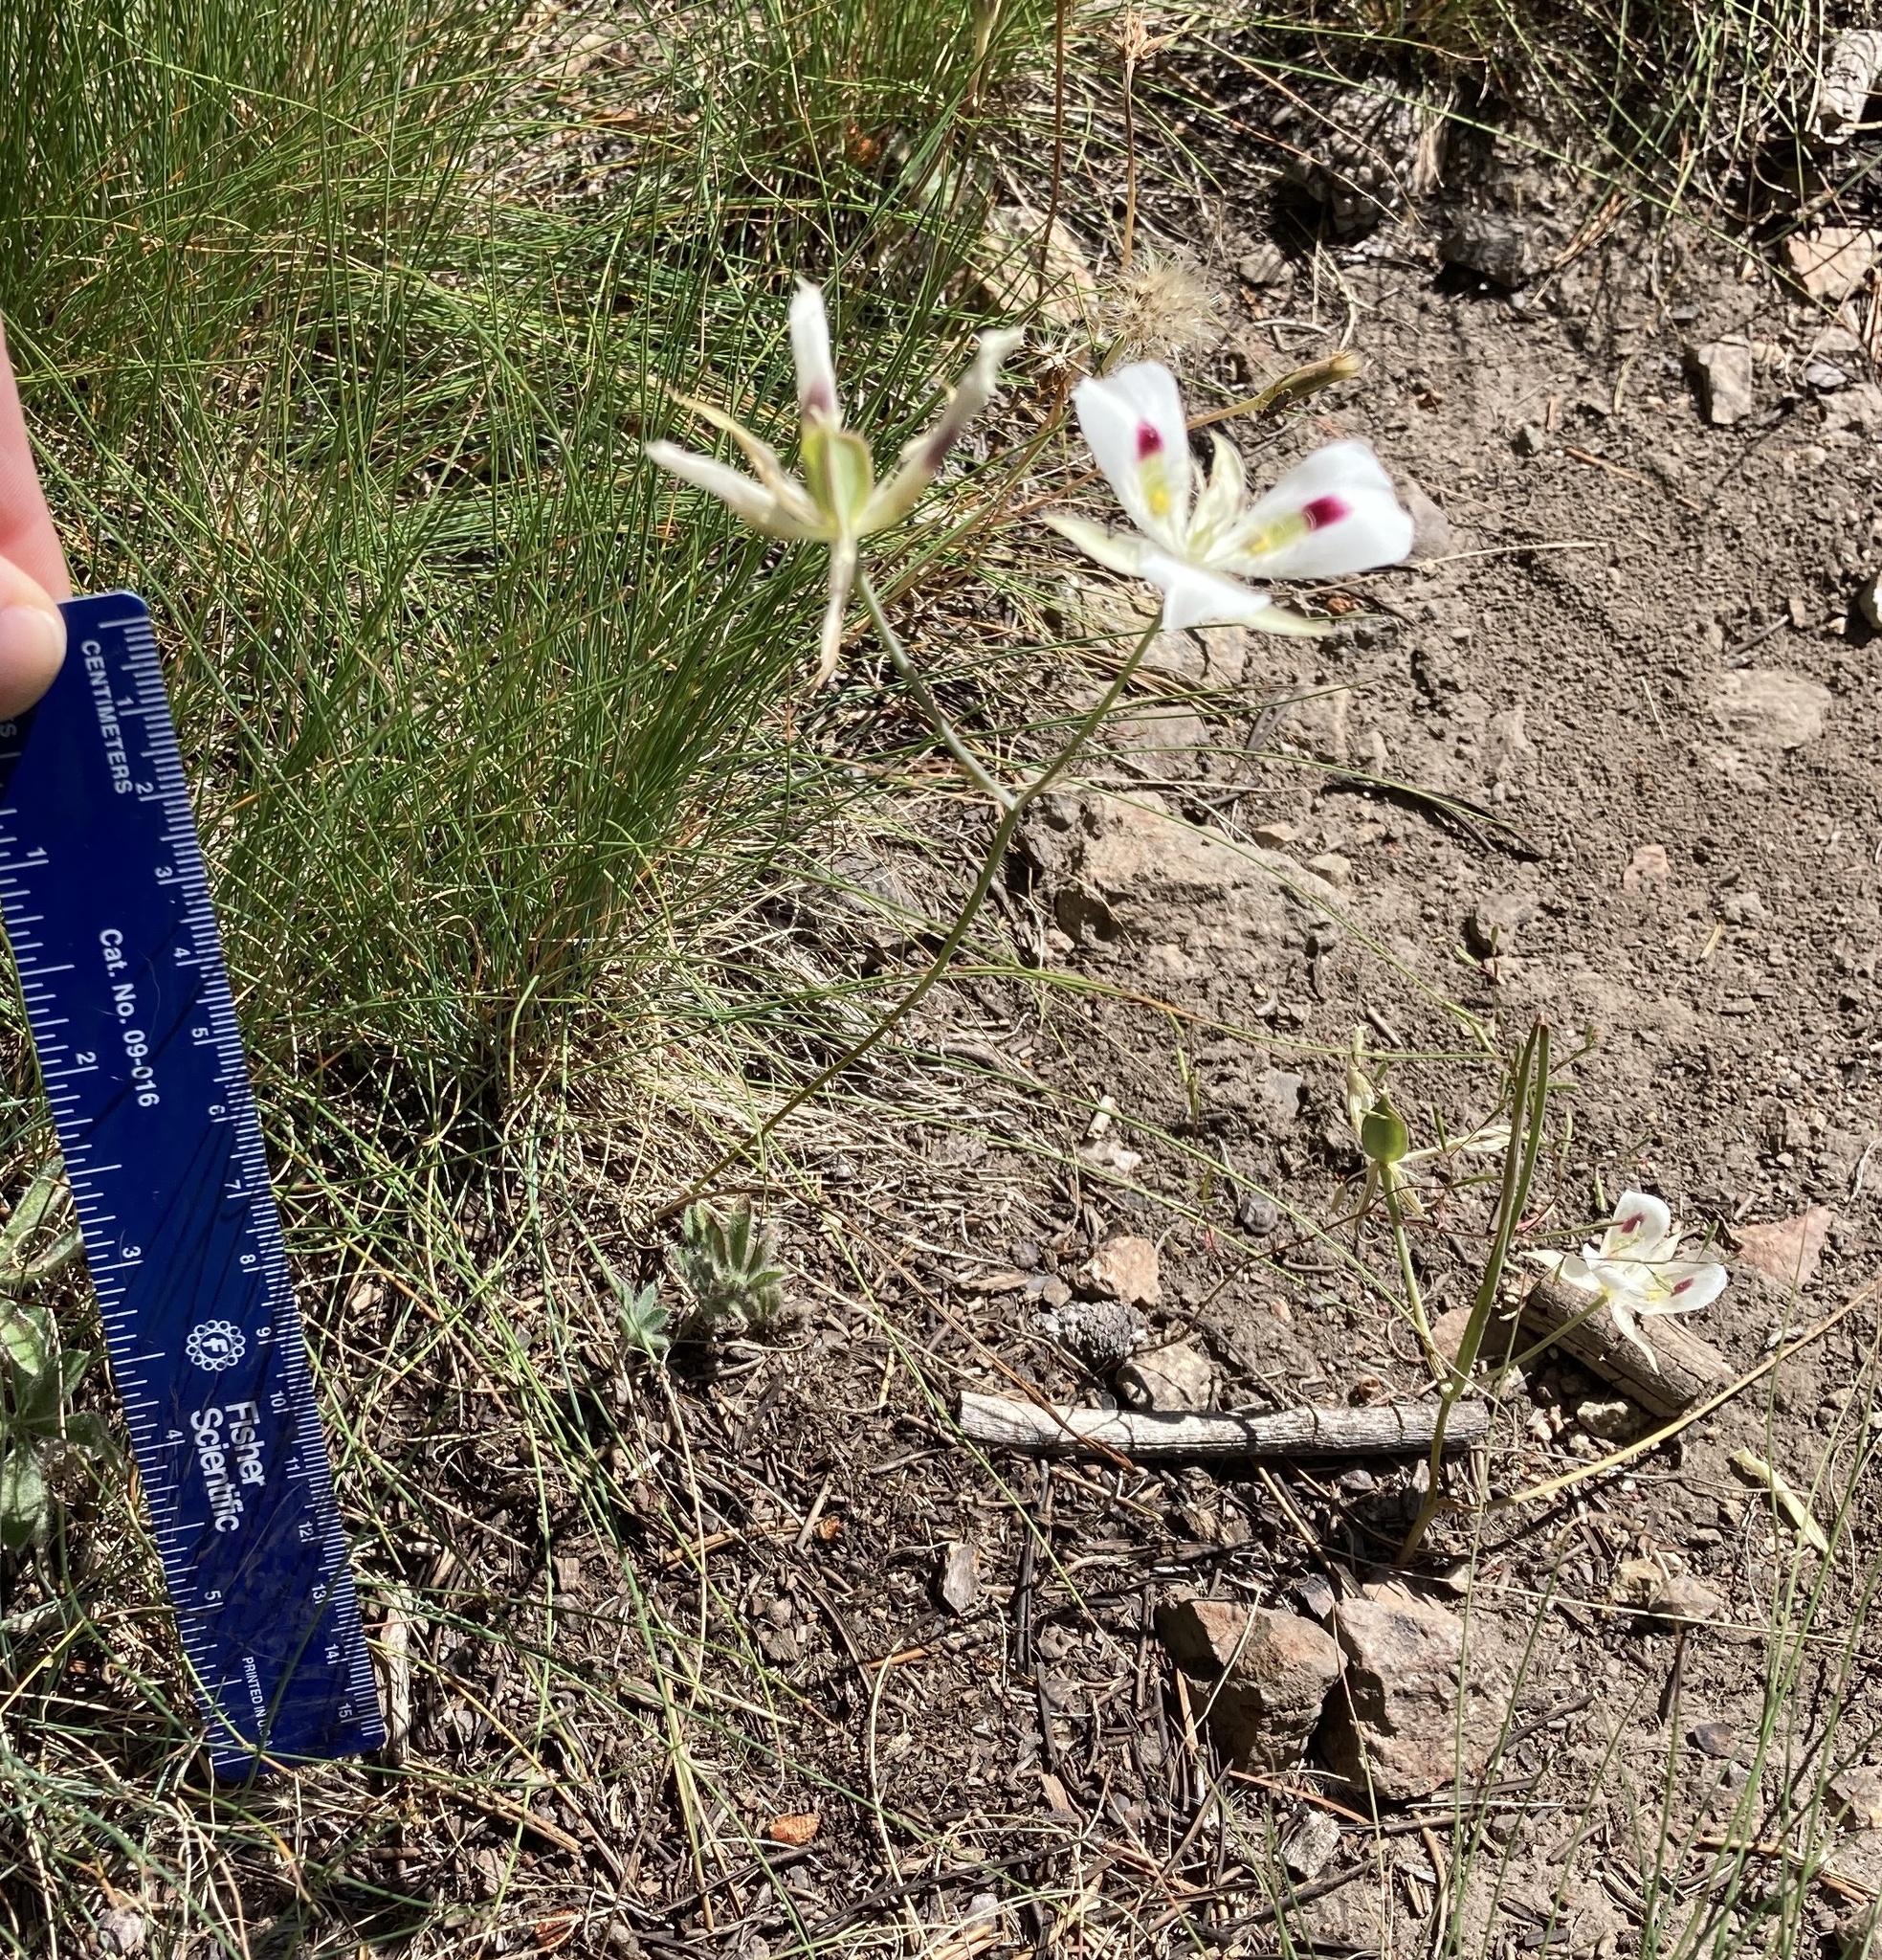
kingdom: Plantae
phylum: Tracheophyta
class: Liliopsida
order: Liliales
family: Liliaceae
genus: Calochortus
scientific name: Calochortus eurycarpus
